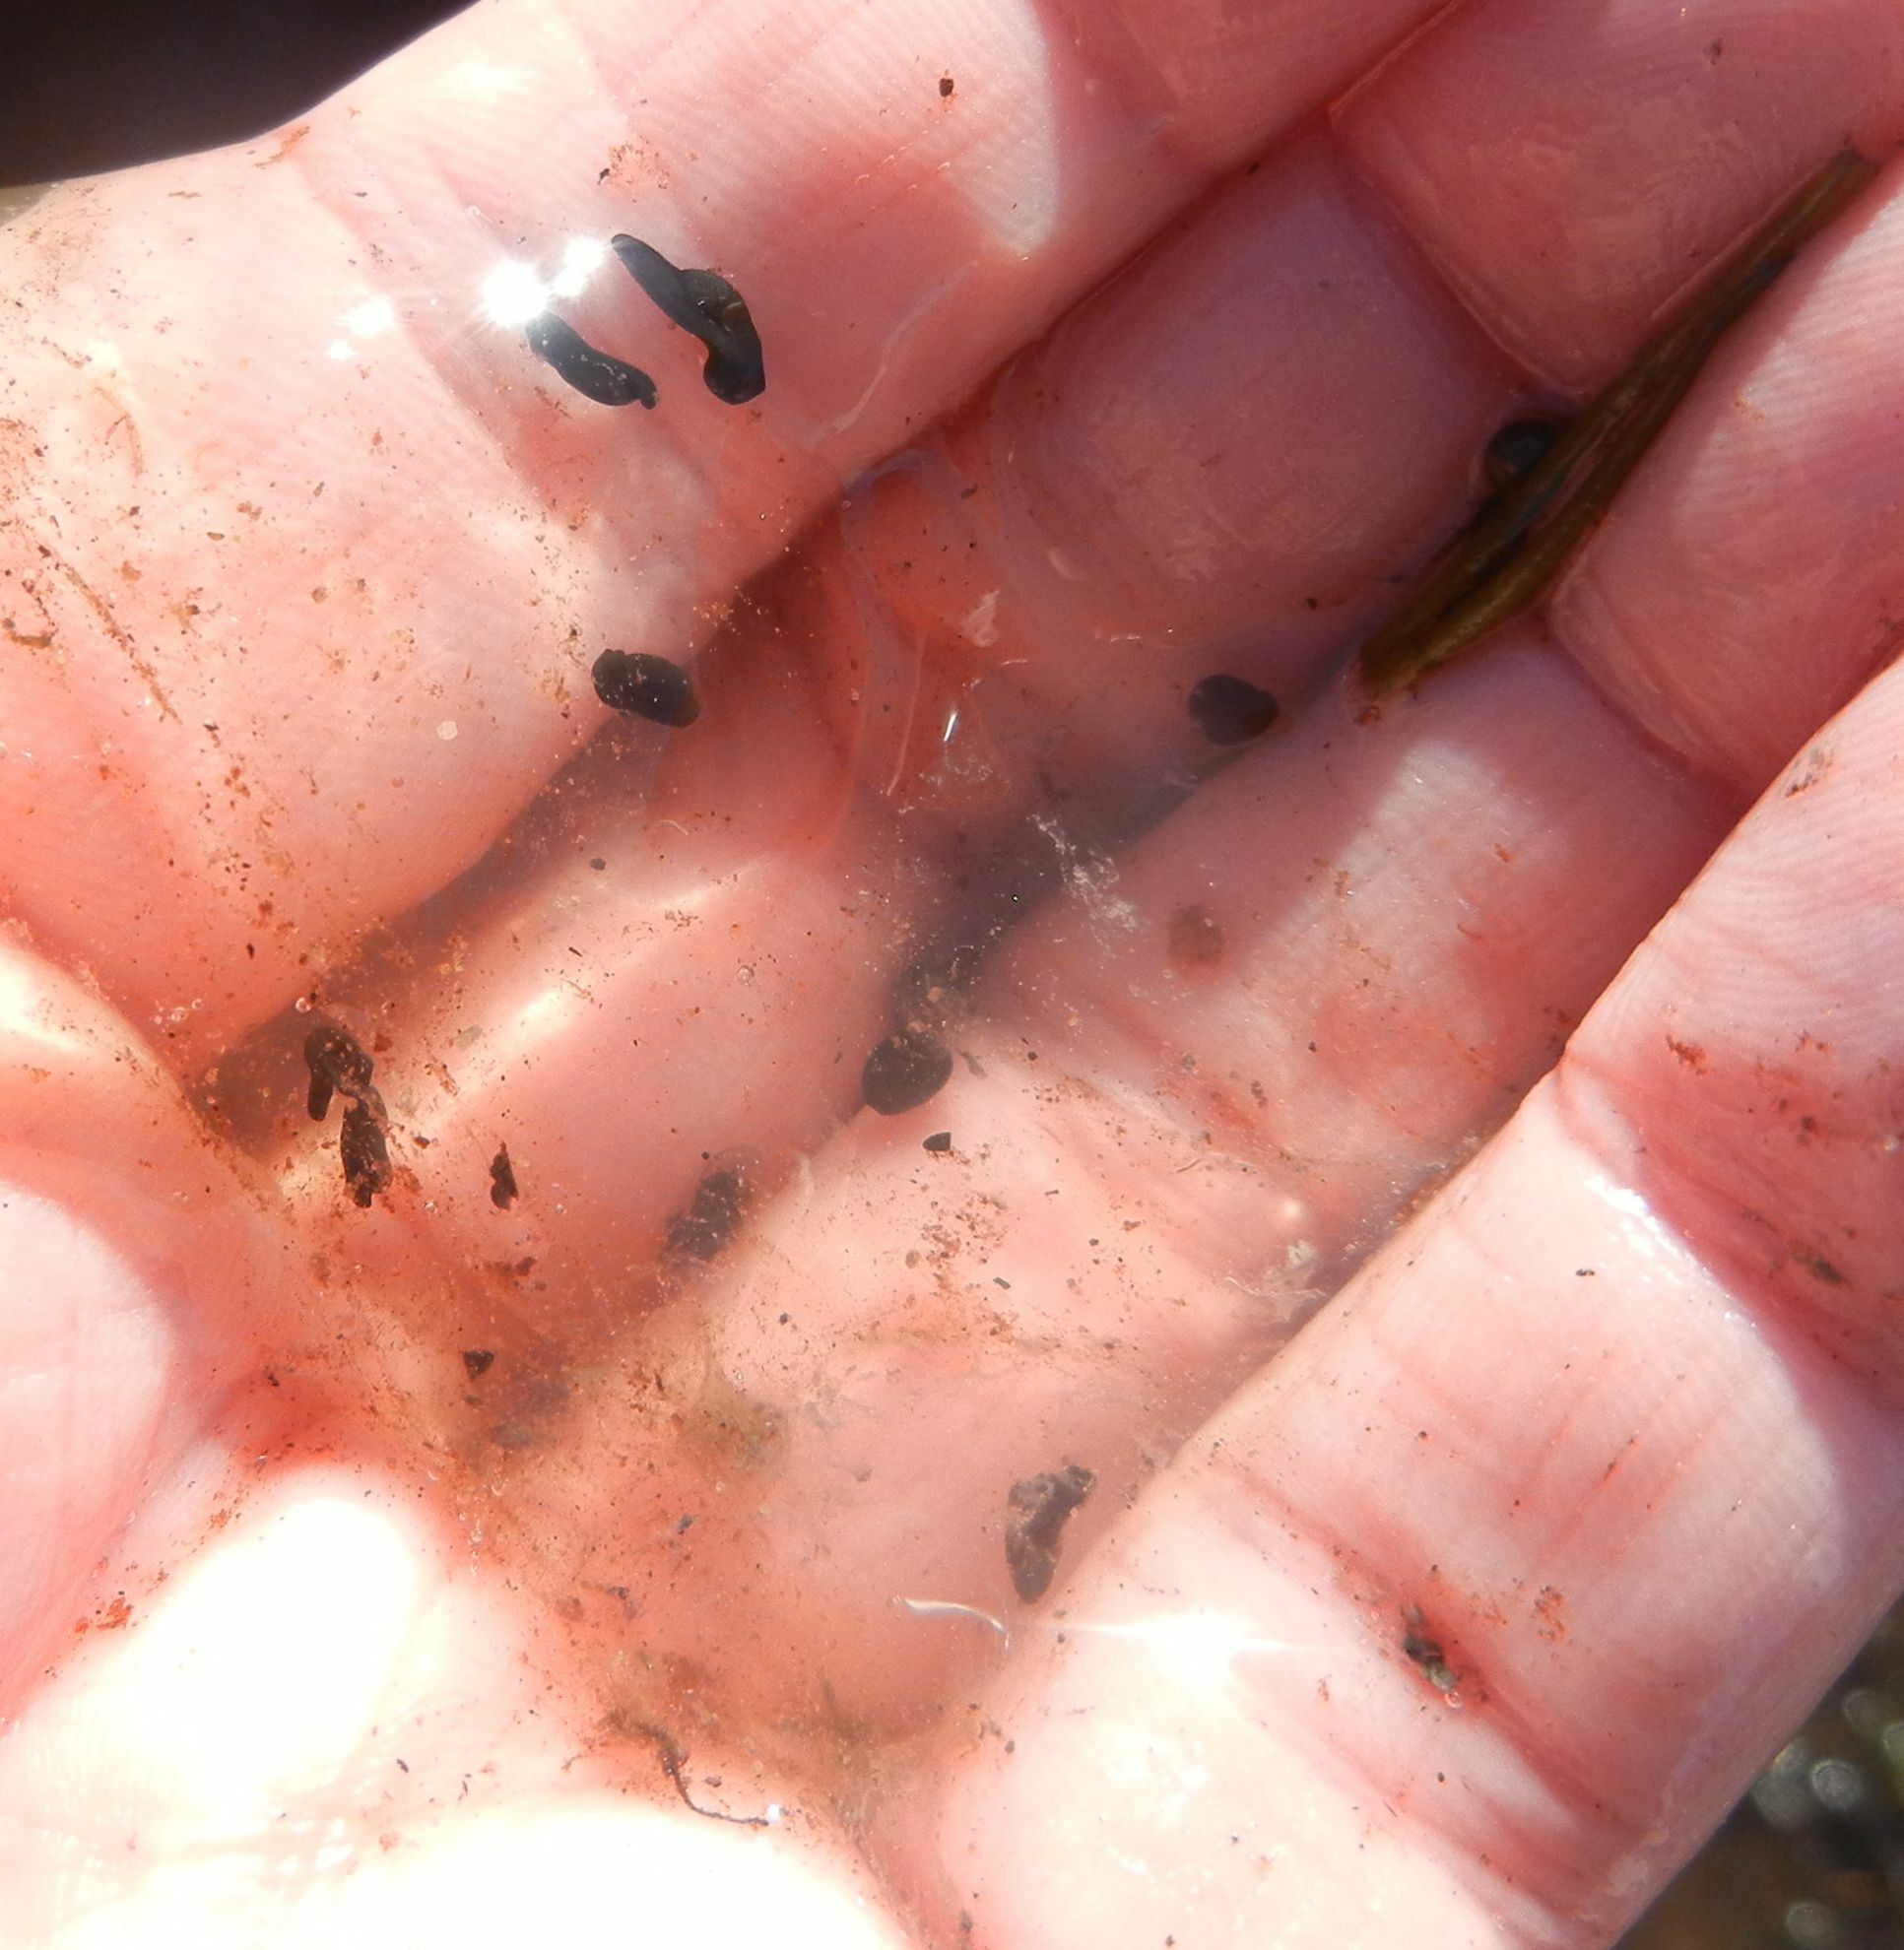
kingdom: Animalia
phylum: Chordata
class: Amphibia
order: Anura
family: Ranidae
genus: Rana
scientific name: Rana temporaria
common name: Common frog
